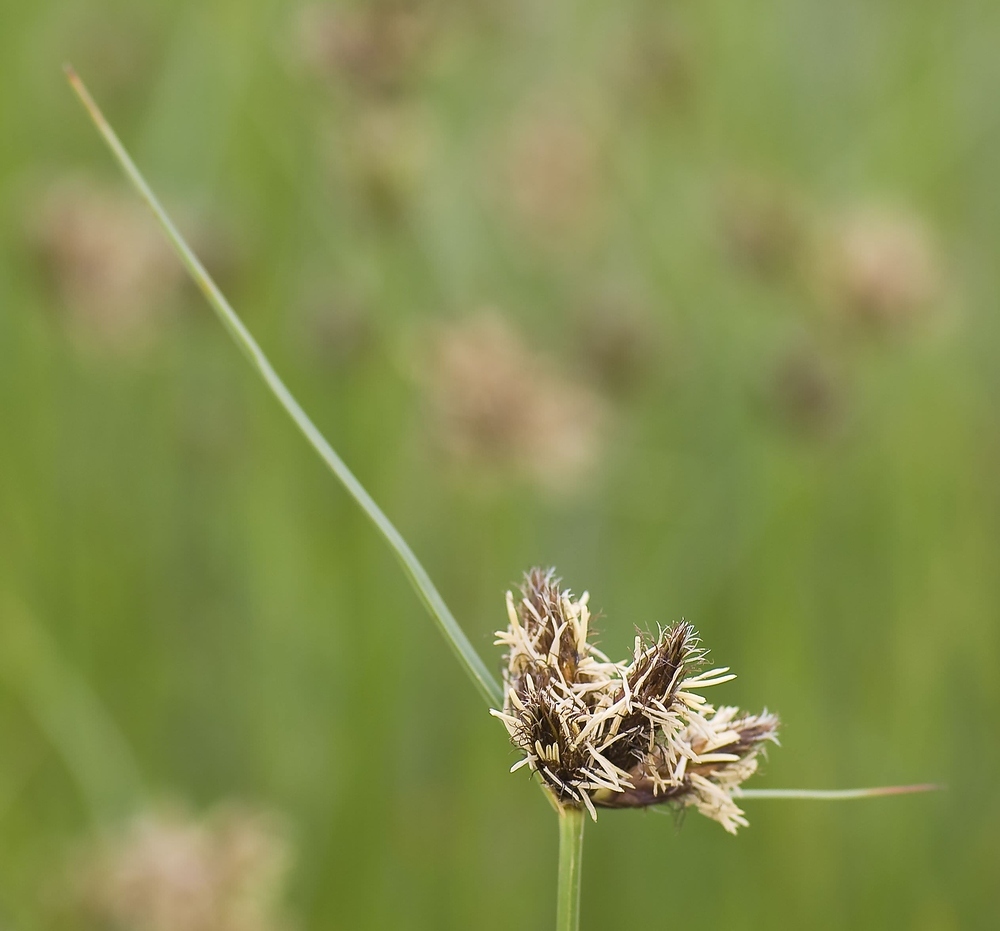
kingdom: Plantae
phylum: Tracheophyta
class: Liliopsida
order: Poales
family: Cyperaceae
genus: Bolboschoenus
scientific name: Bolboschoenus maritimus
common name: Sea club-rush
